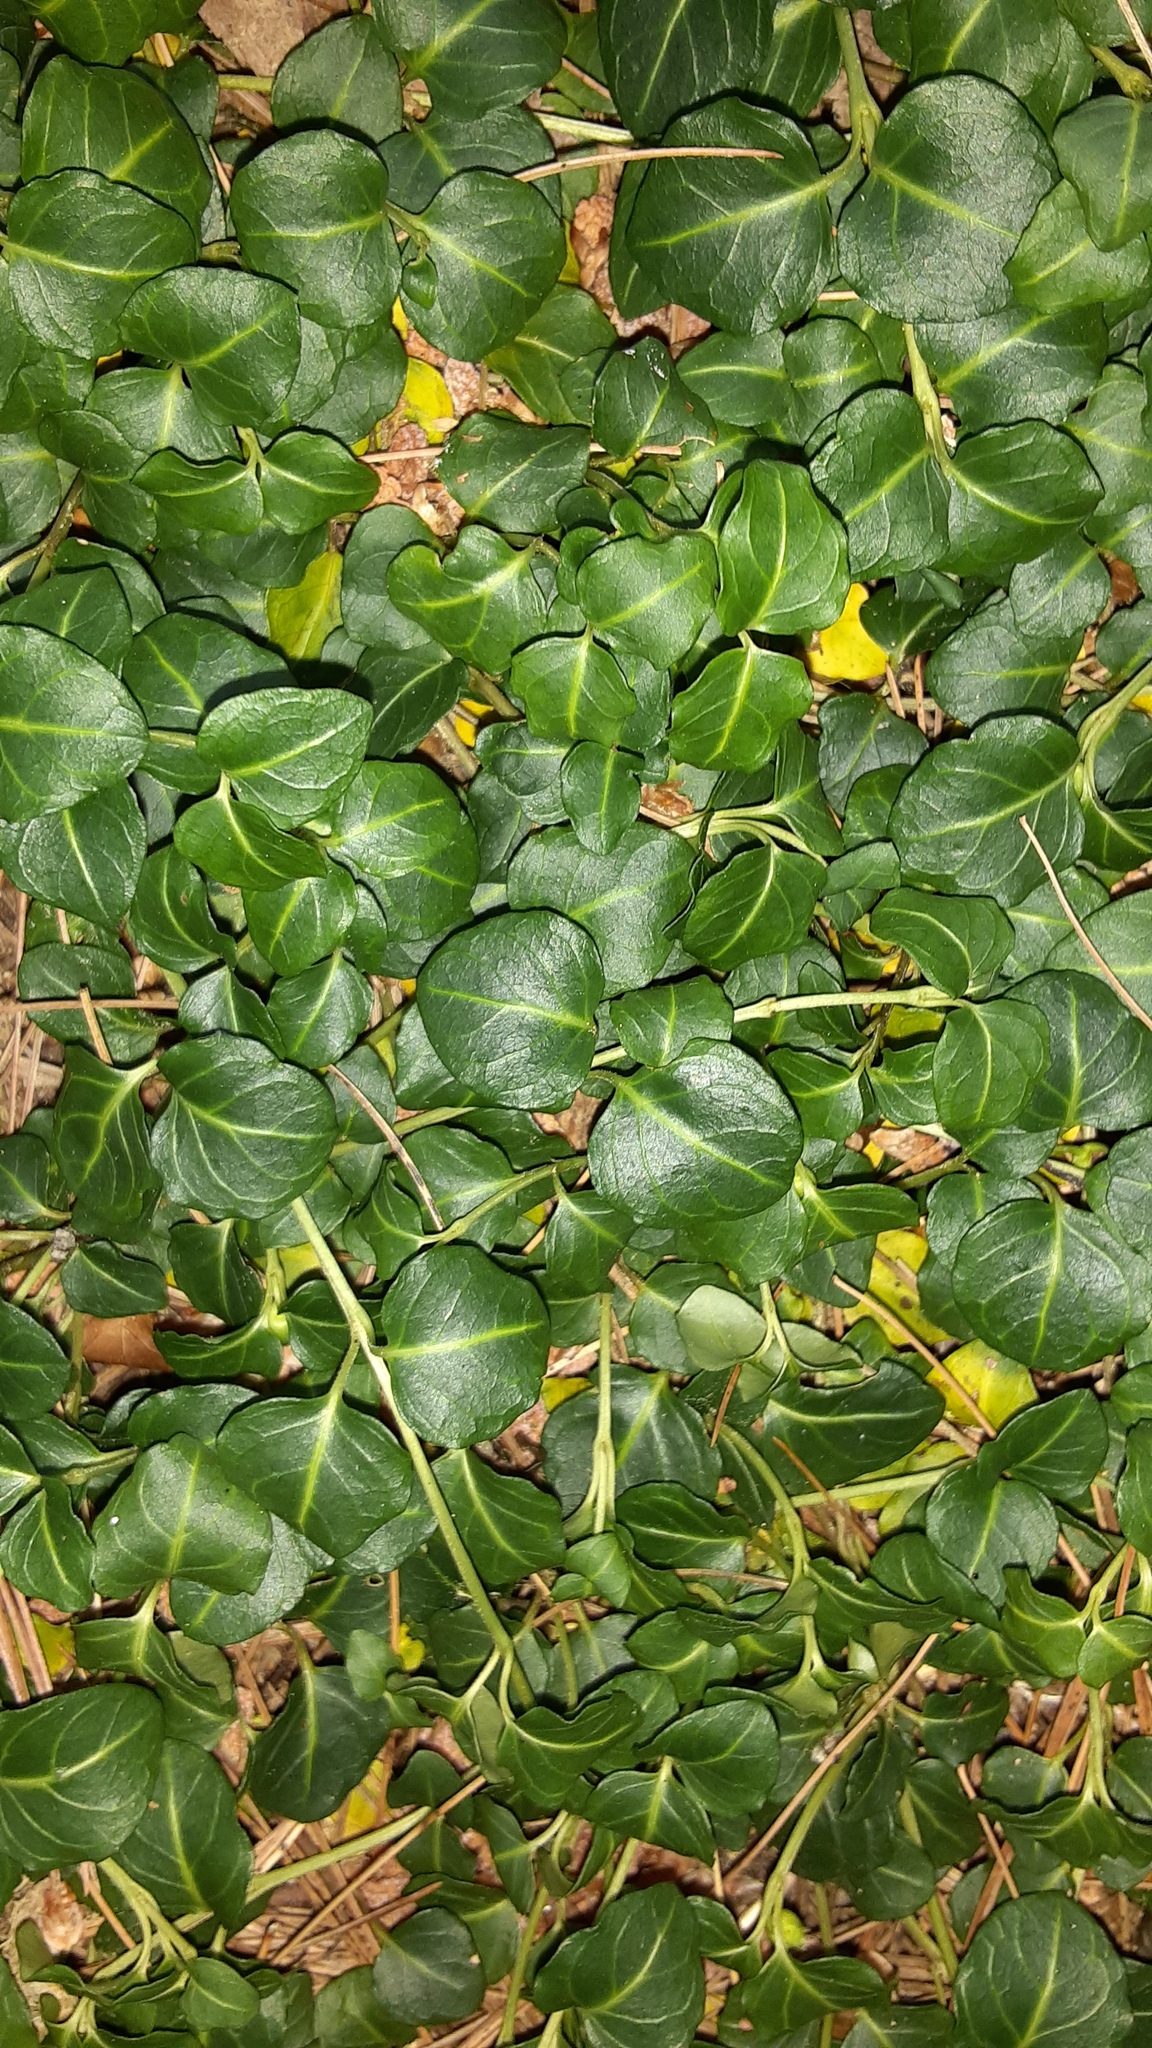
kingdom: Plantae
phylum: Tracheophyta
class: Magnoliopsida
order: Gentianales
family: Rubiaceae
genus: Mitchella
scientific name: Mitchella repens
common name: Partridge-berry
